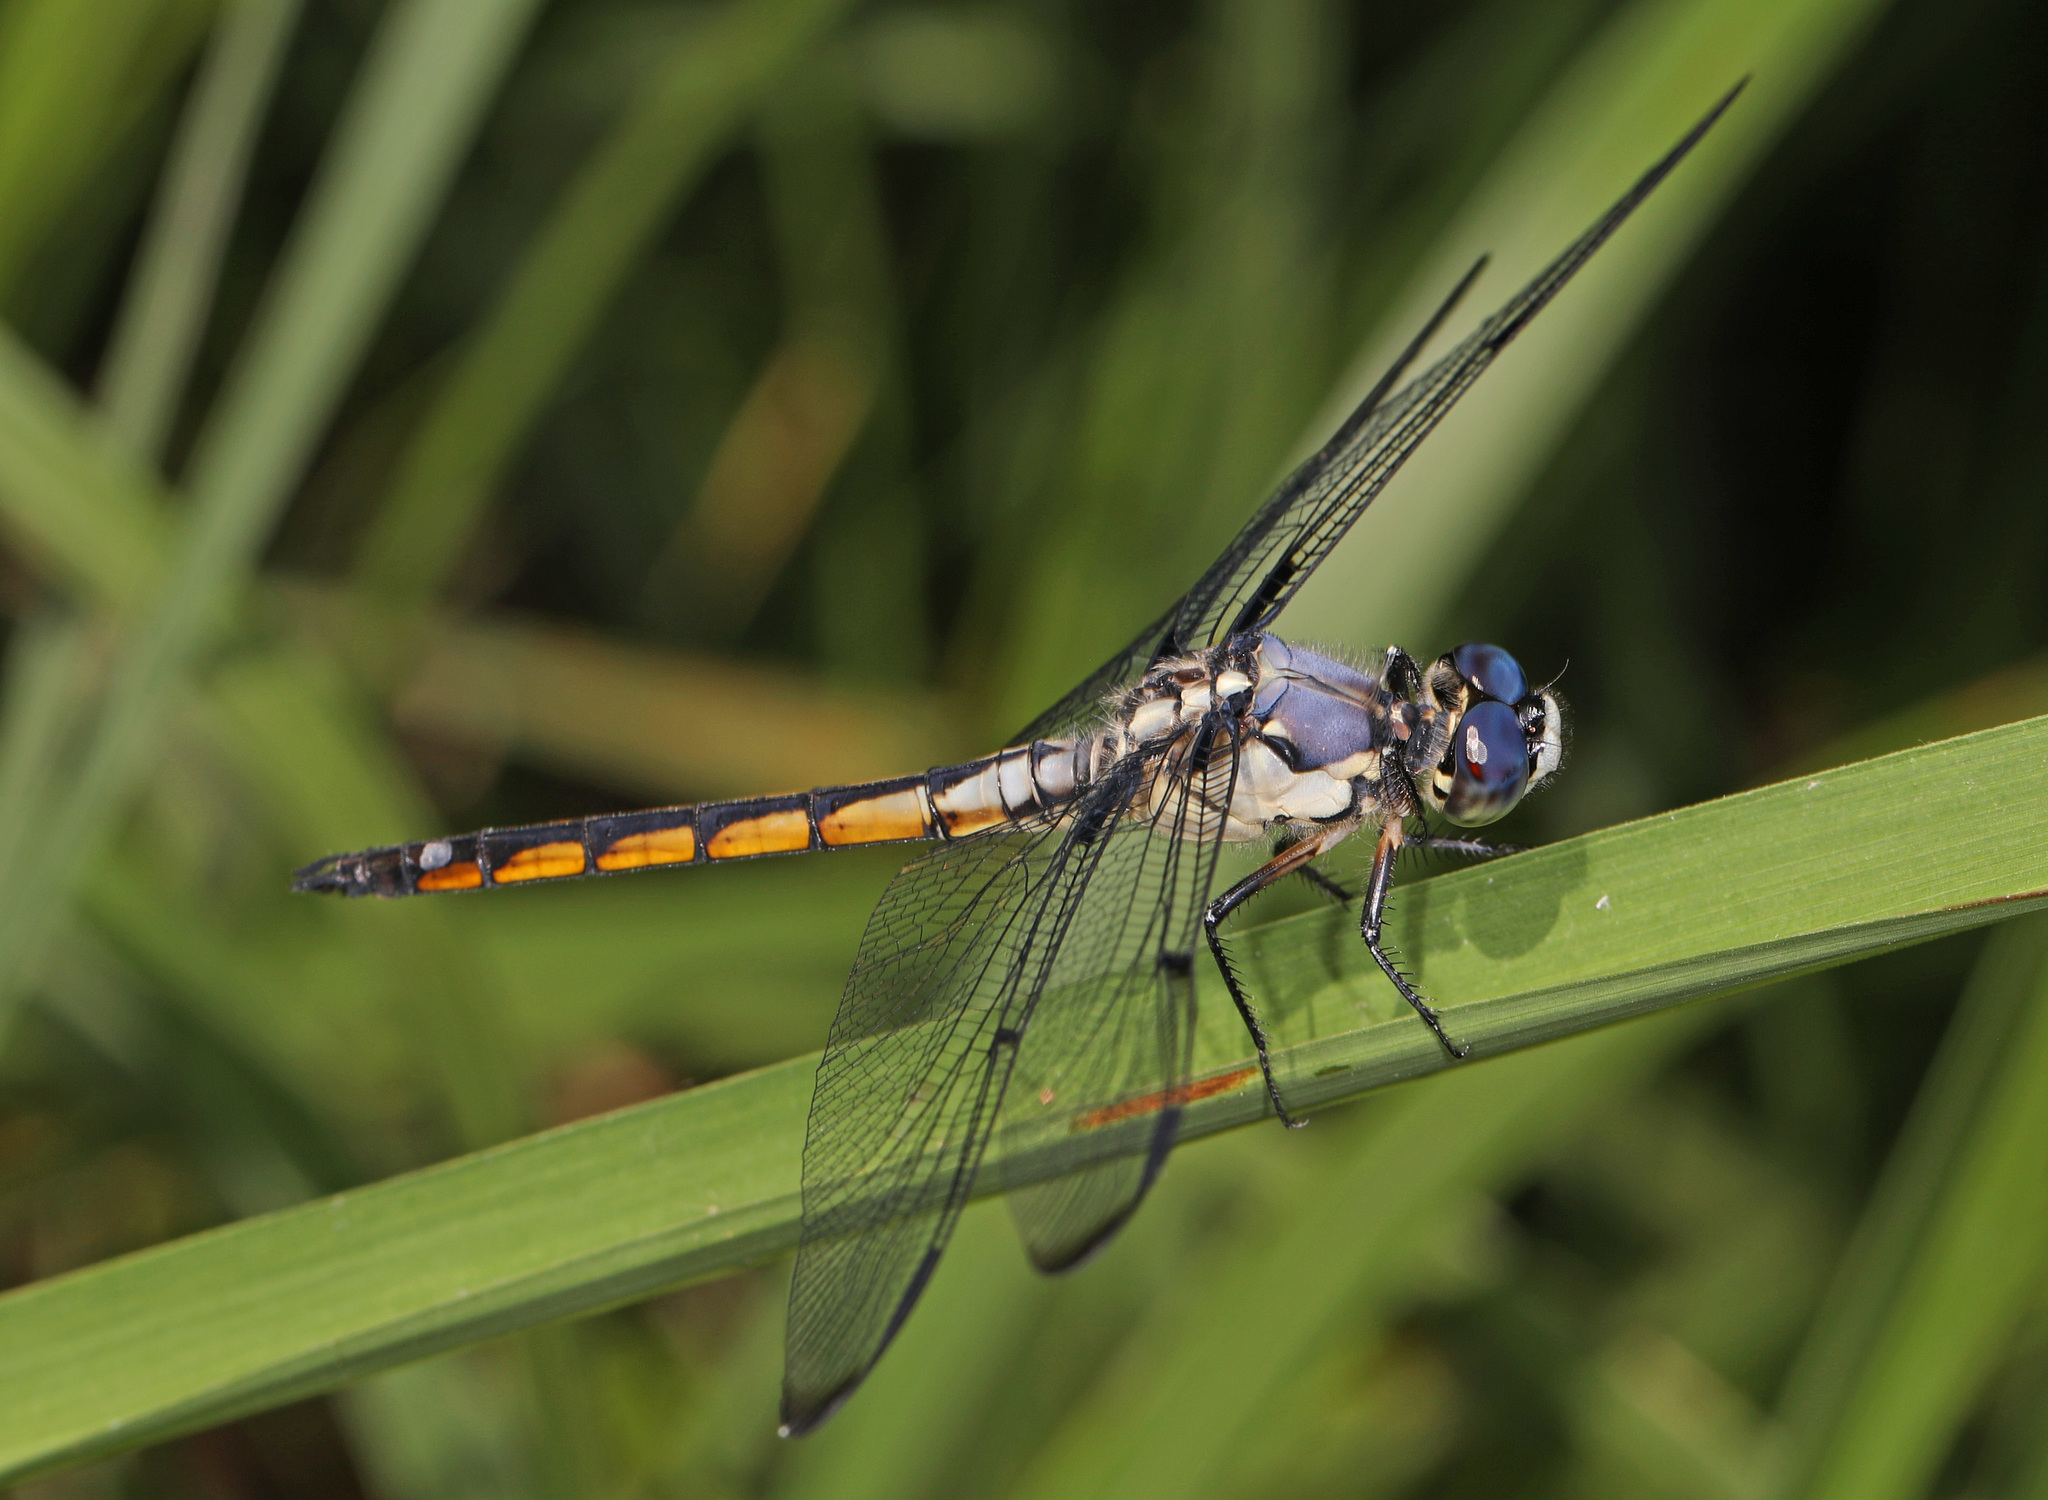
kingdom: Animalia
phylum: Arthropoda
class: Insecta
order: Odonata
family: Libellulidae
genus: Libellula
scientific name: Libellula vibrans
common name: Great blue skimmer
